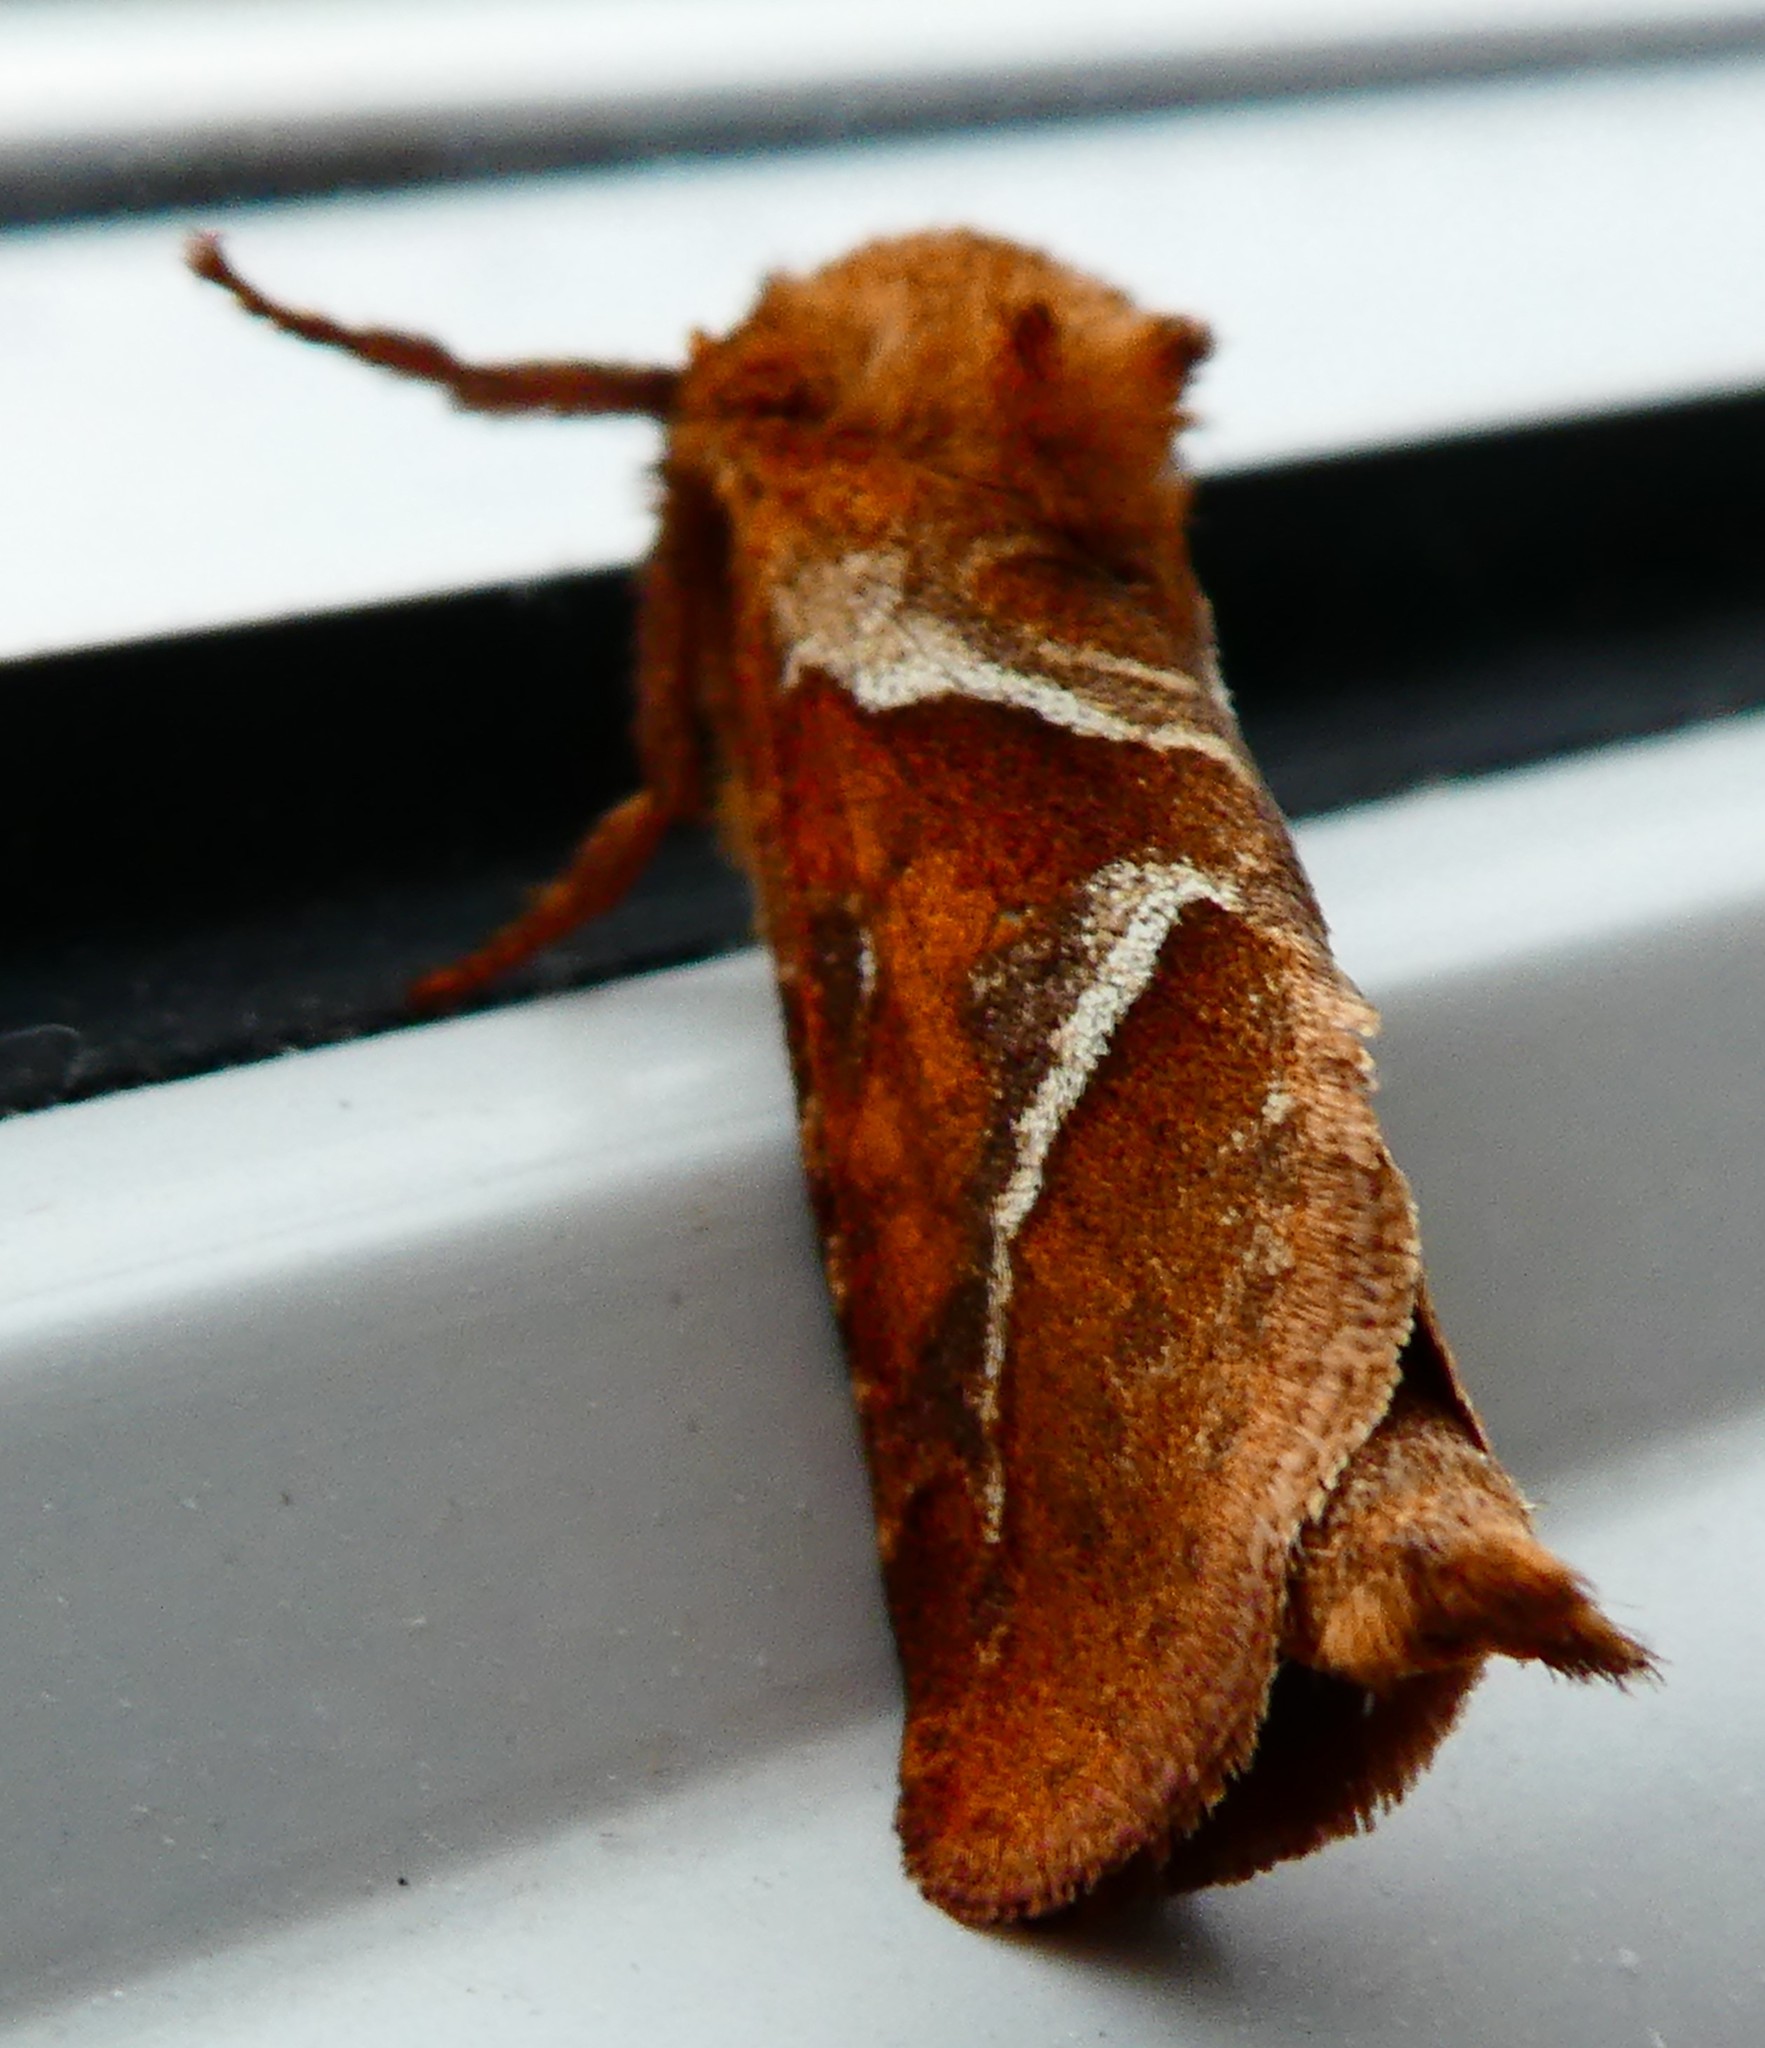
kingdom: Animalia
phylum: Arthropoda
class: Insecta
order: Lepidoptera
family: Hepialidae
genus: Triodia
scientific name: Triodia sylvina
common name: Orange swift
